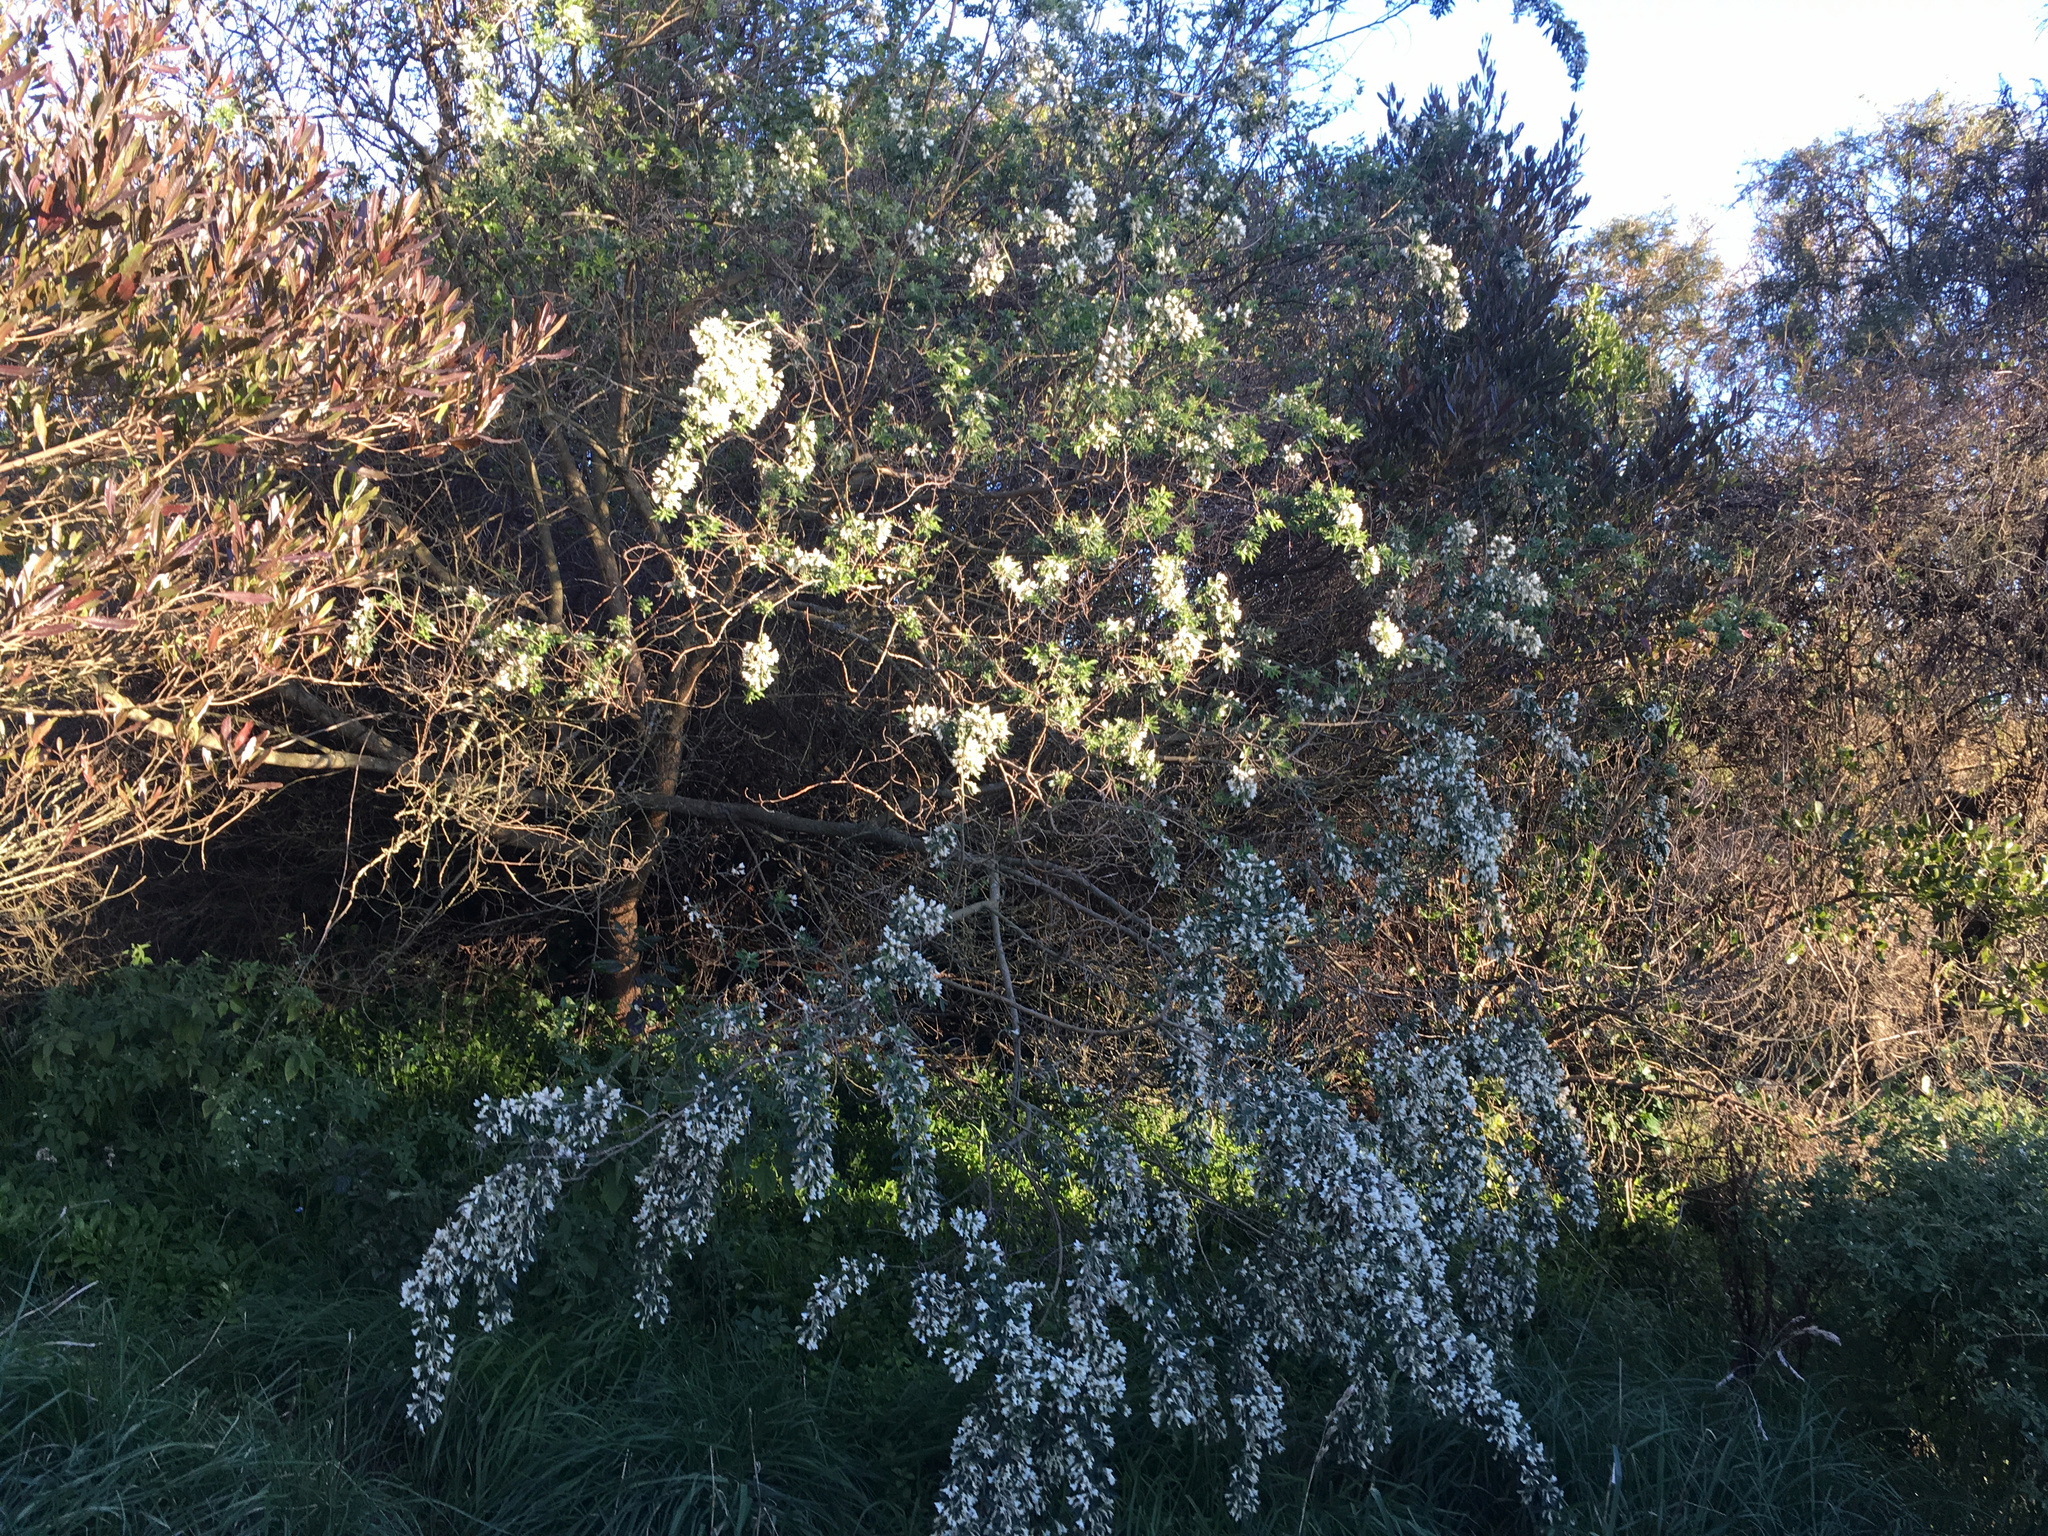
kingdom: Plantae
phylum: Tracheophyta
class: Magnoliopsida
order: Fabales
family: Fabaceae
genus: Chamaecytisus
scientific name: Chamaecytisus prolifer
